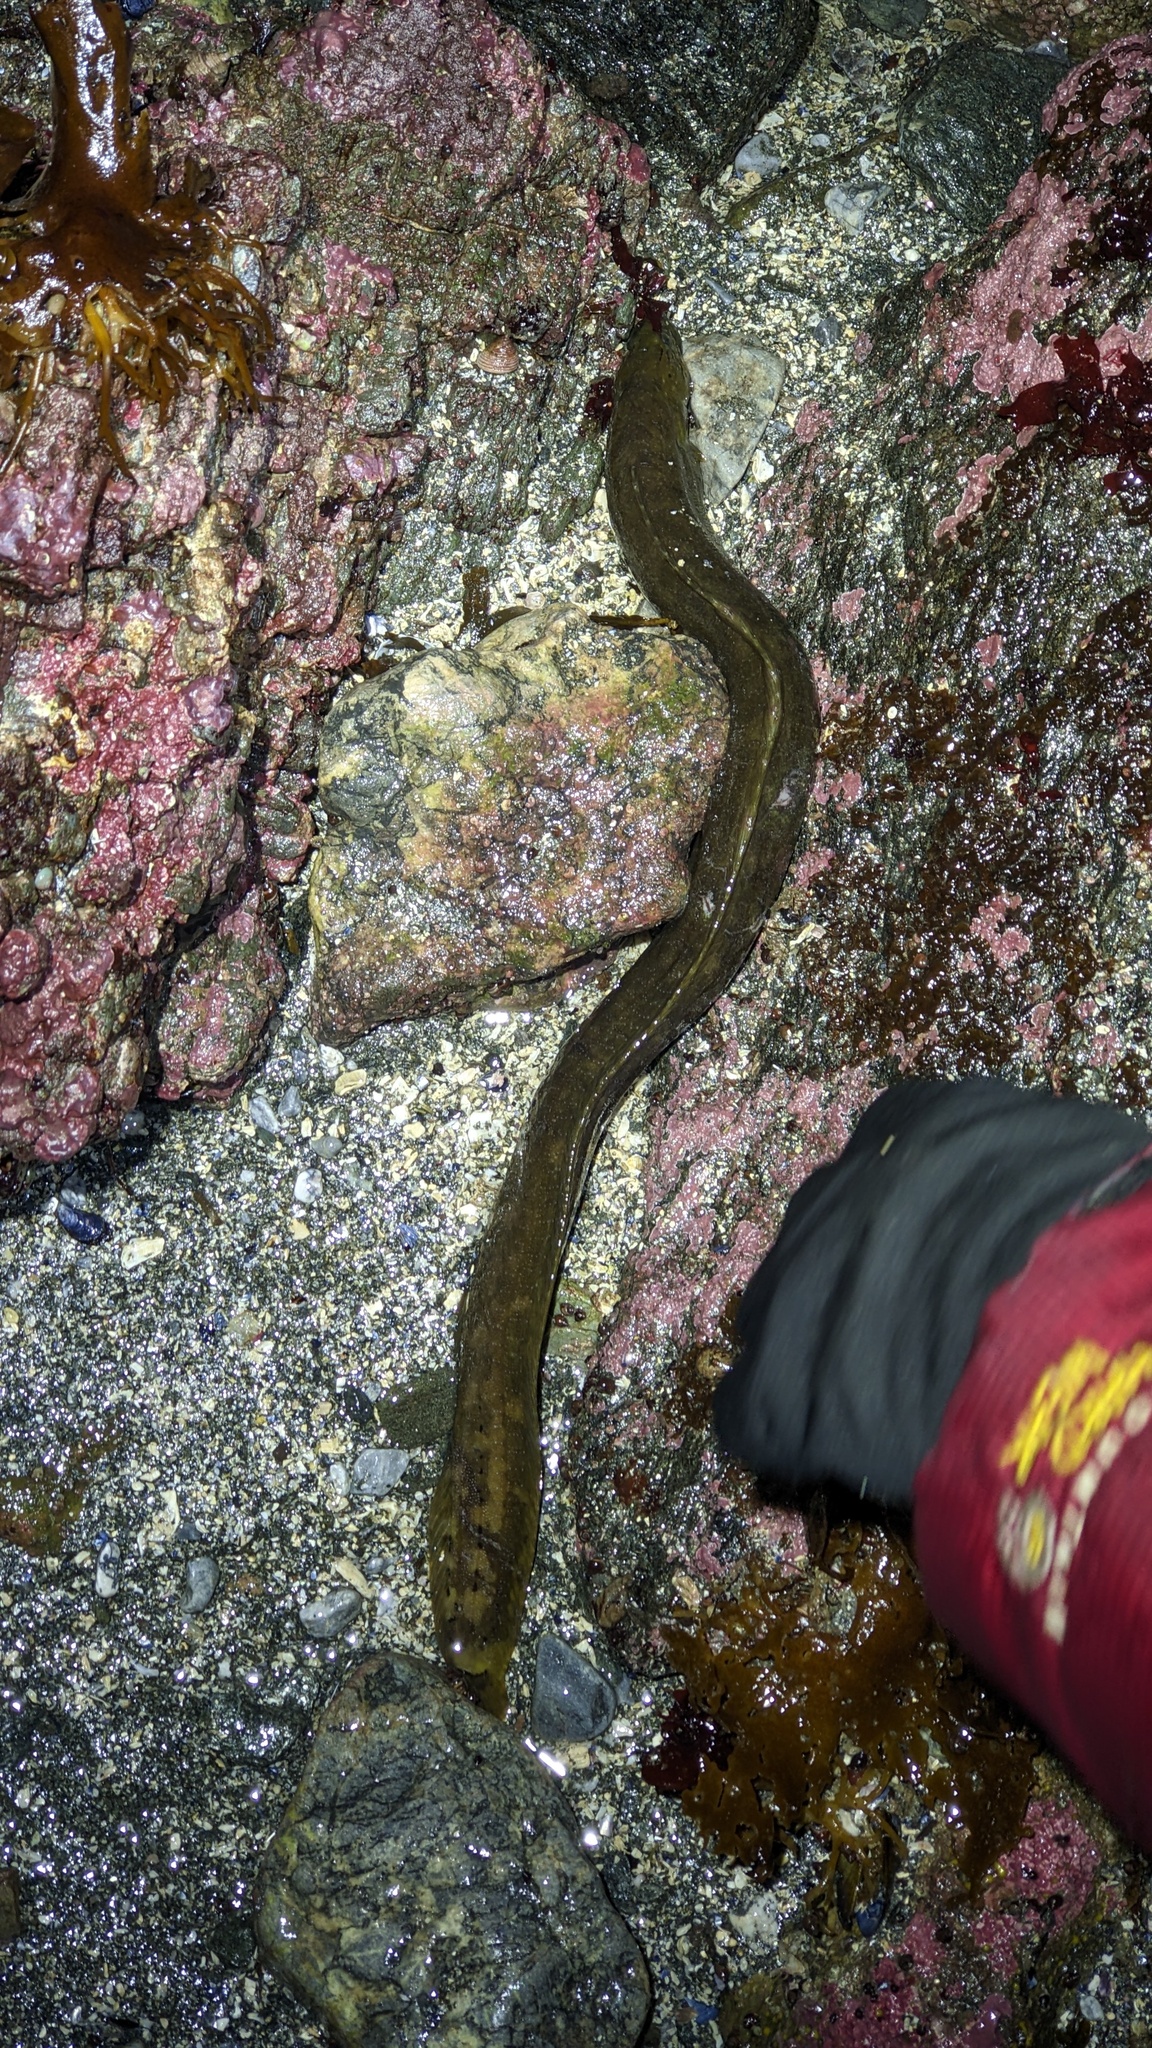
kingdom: Animalia
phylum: Chordata
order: Perciformes
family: Stichaeidae
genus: Xiphister
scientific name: Xiphister mucosus
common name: Rock prickleback
